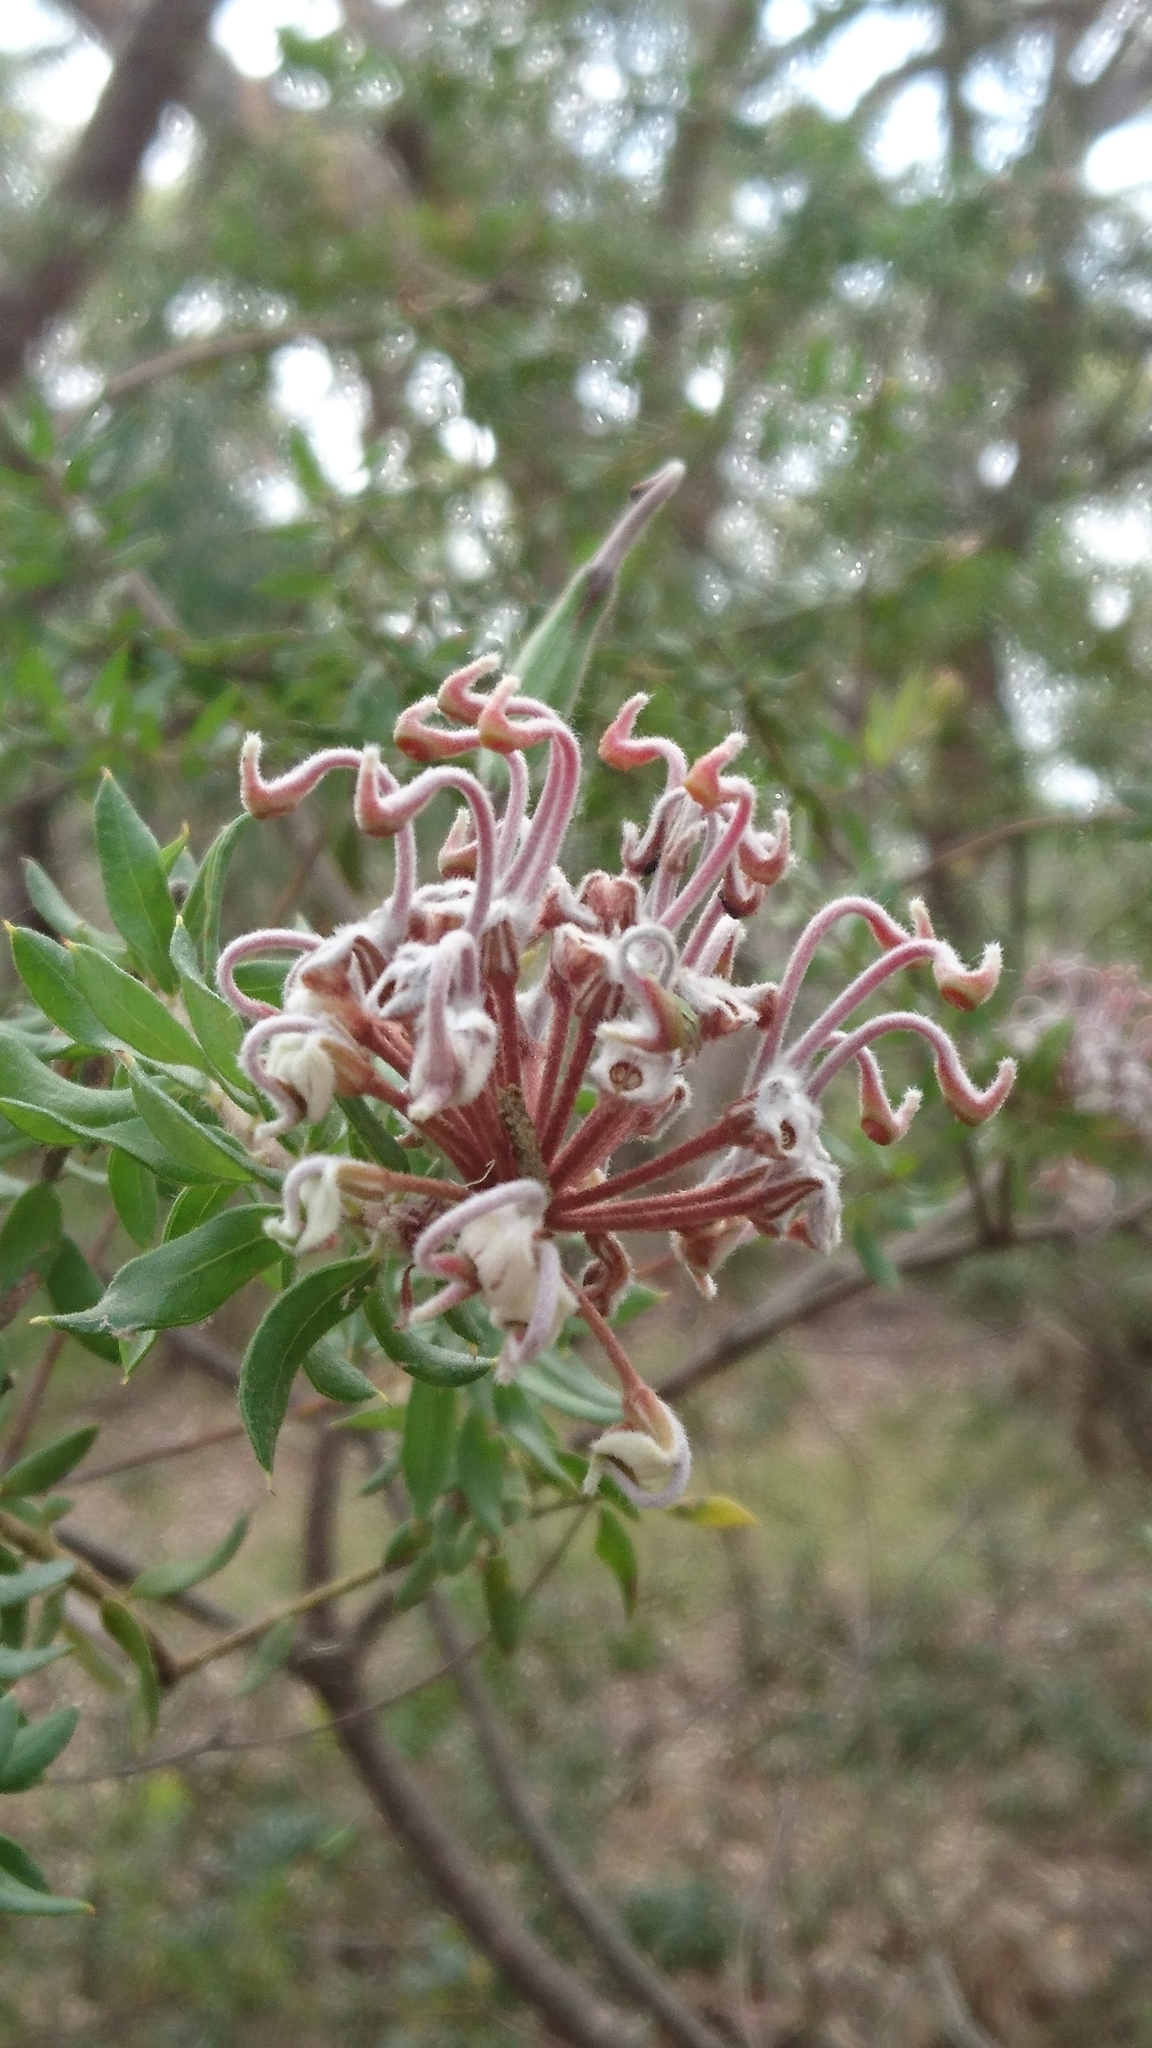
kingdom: Plantae
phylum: Tracheophyta
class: Magnoliopsida
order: Proteales
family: Proteaceae
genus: Grevillea
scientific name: Grevillea buxifolia
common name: Grey spiderflower
